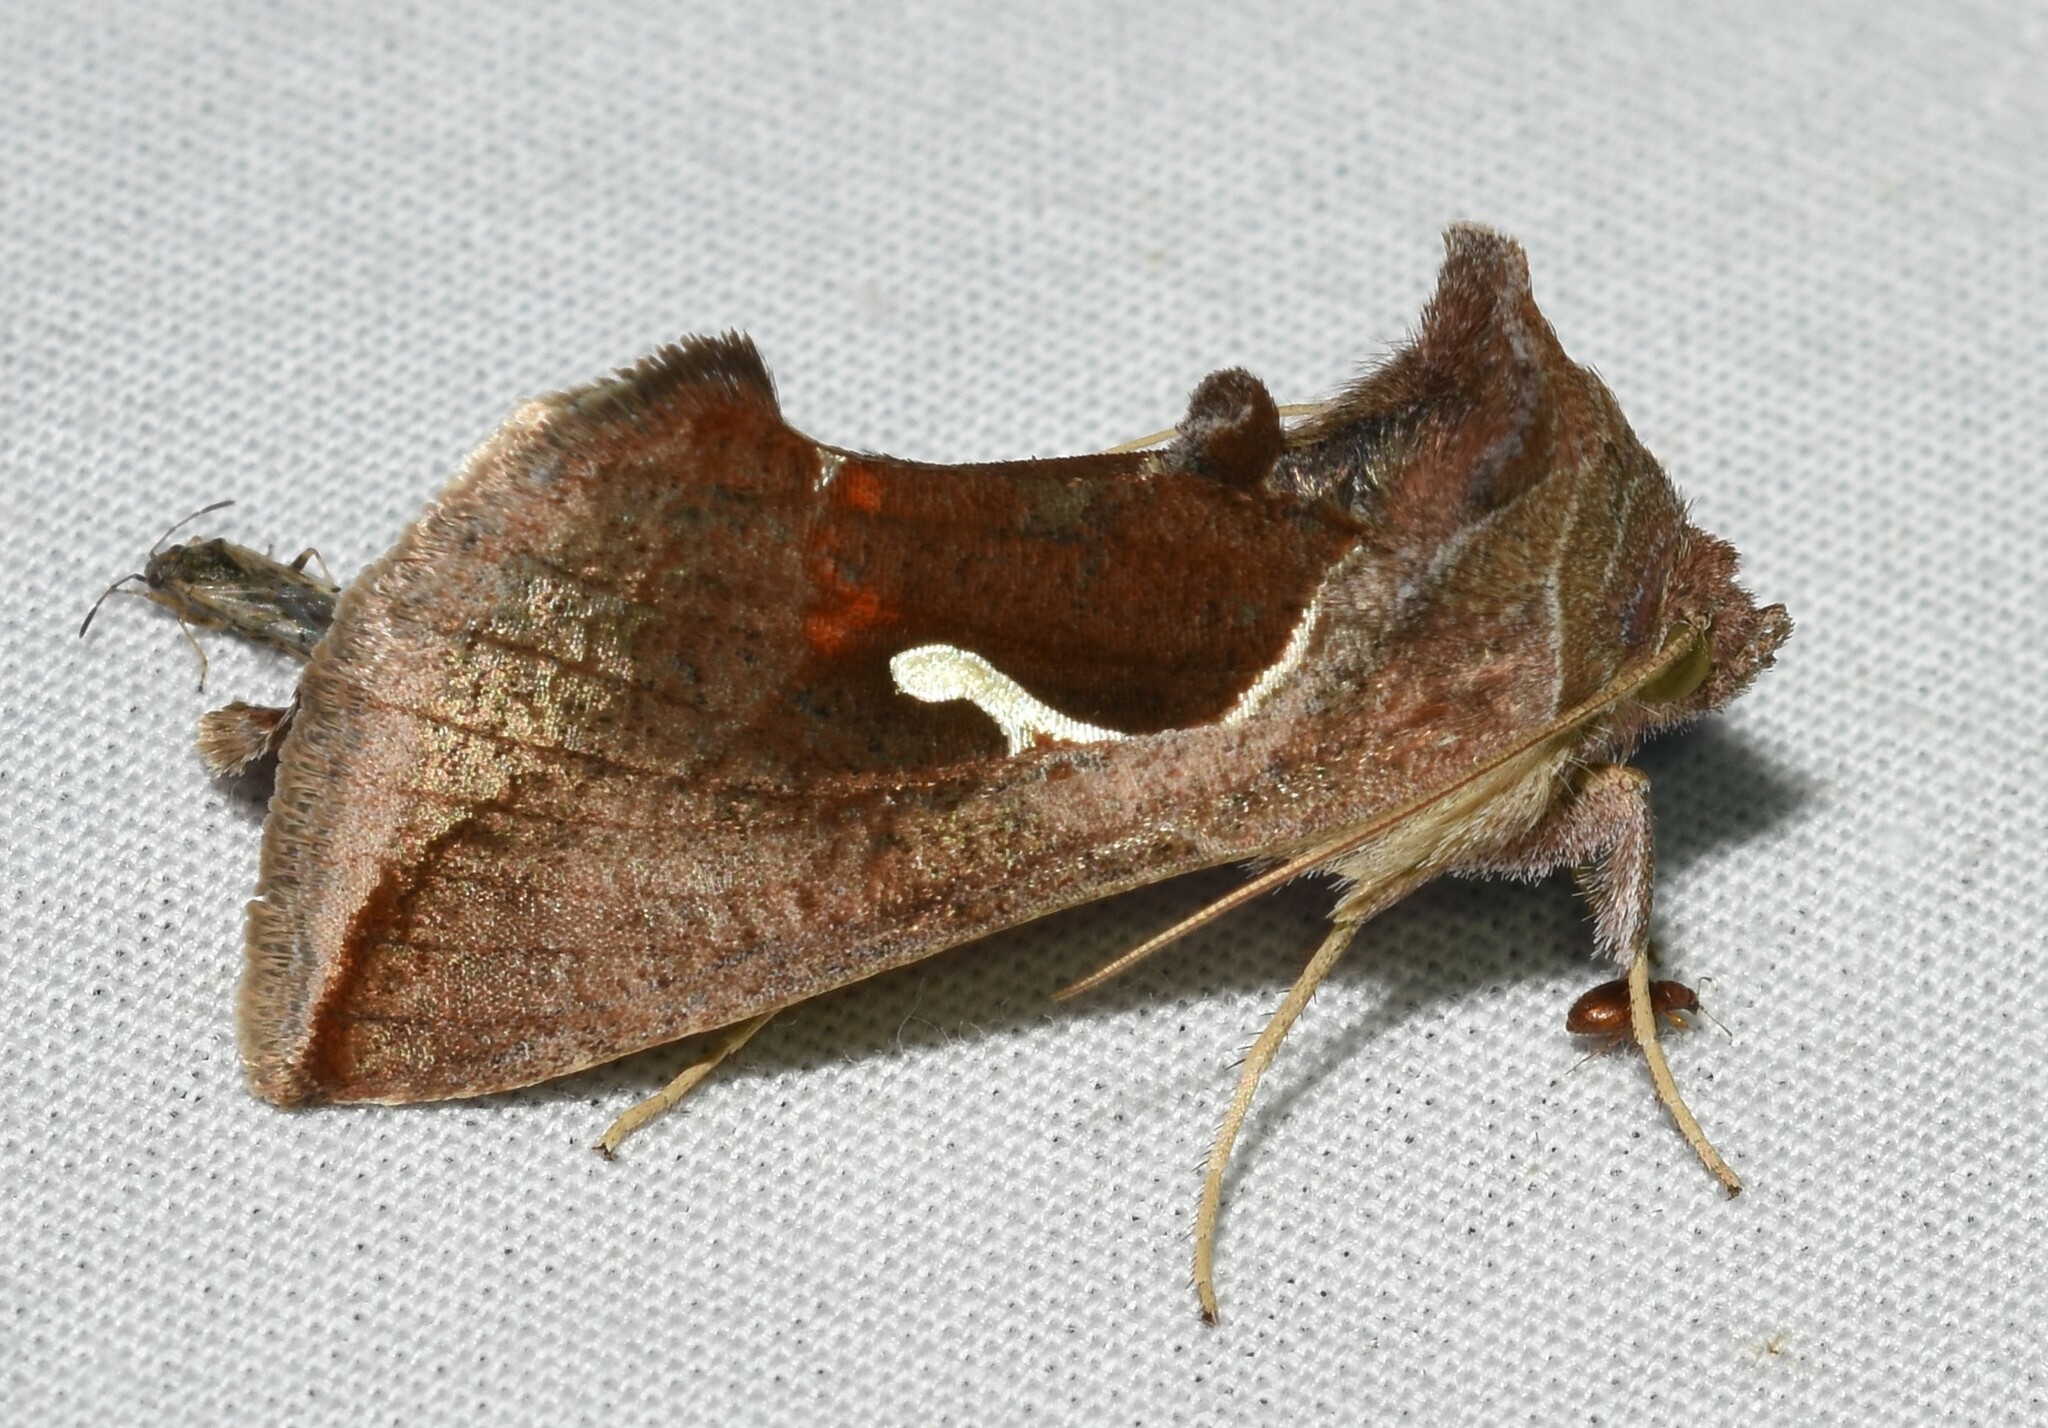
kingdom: Animalia
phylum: Arthropoda
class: Insecta
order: Lepidoptera
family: Noctuidae
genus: Anagrapha
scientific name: Anagrapha falcifera
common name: Celery looper
